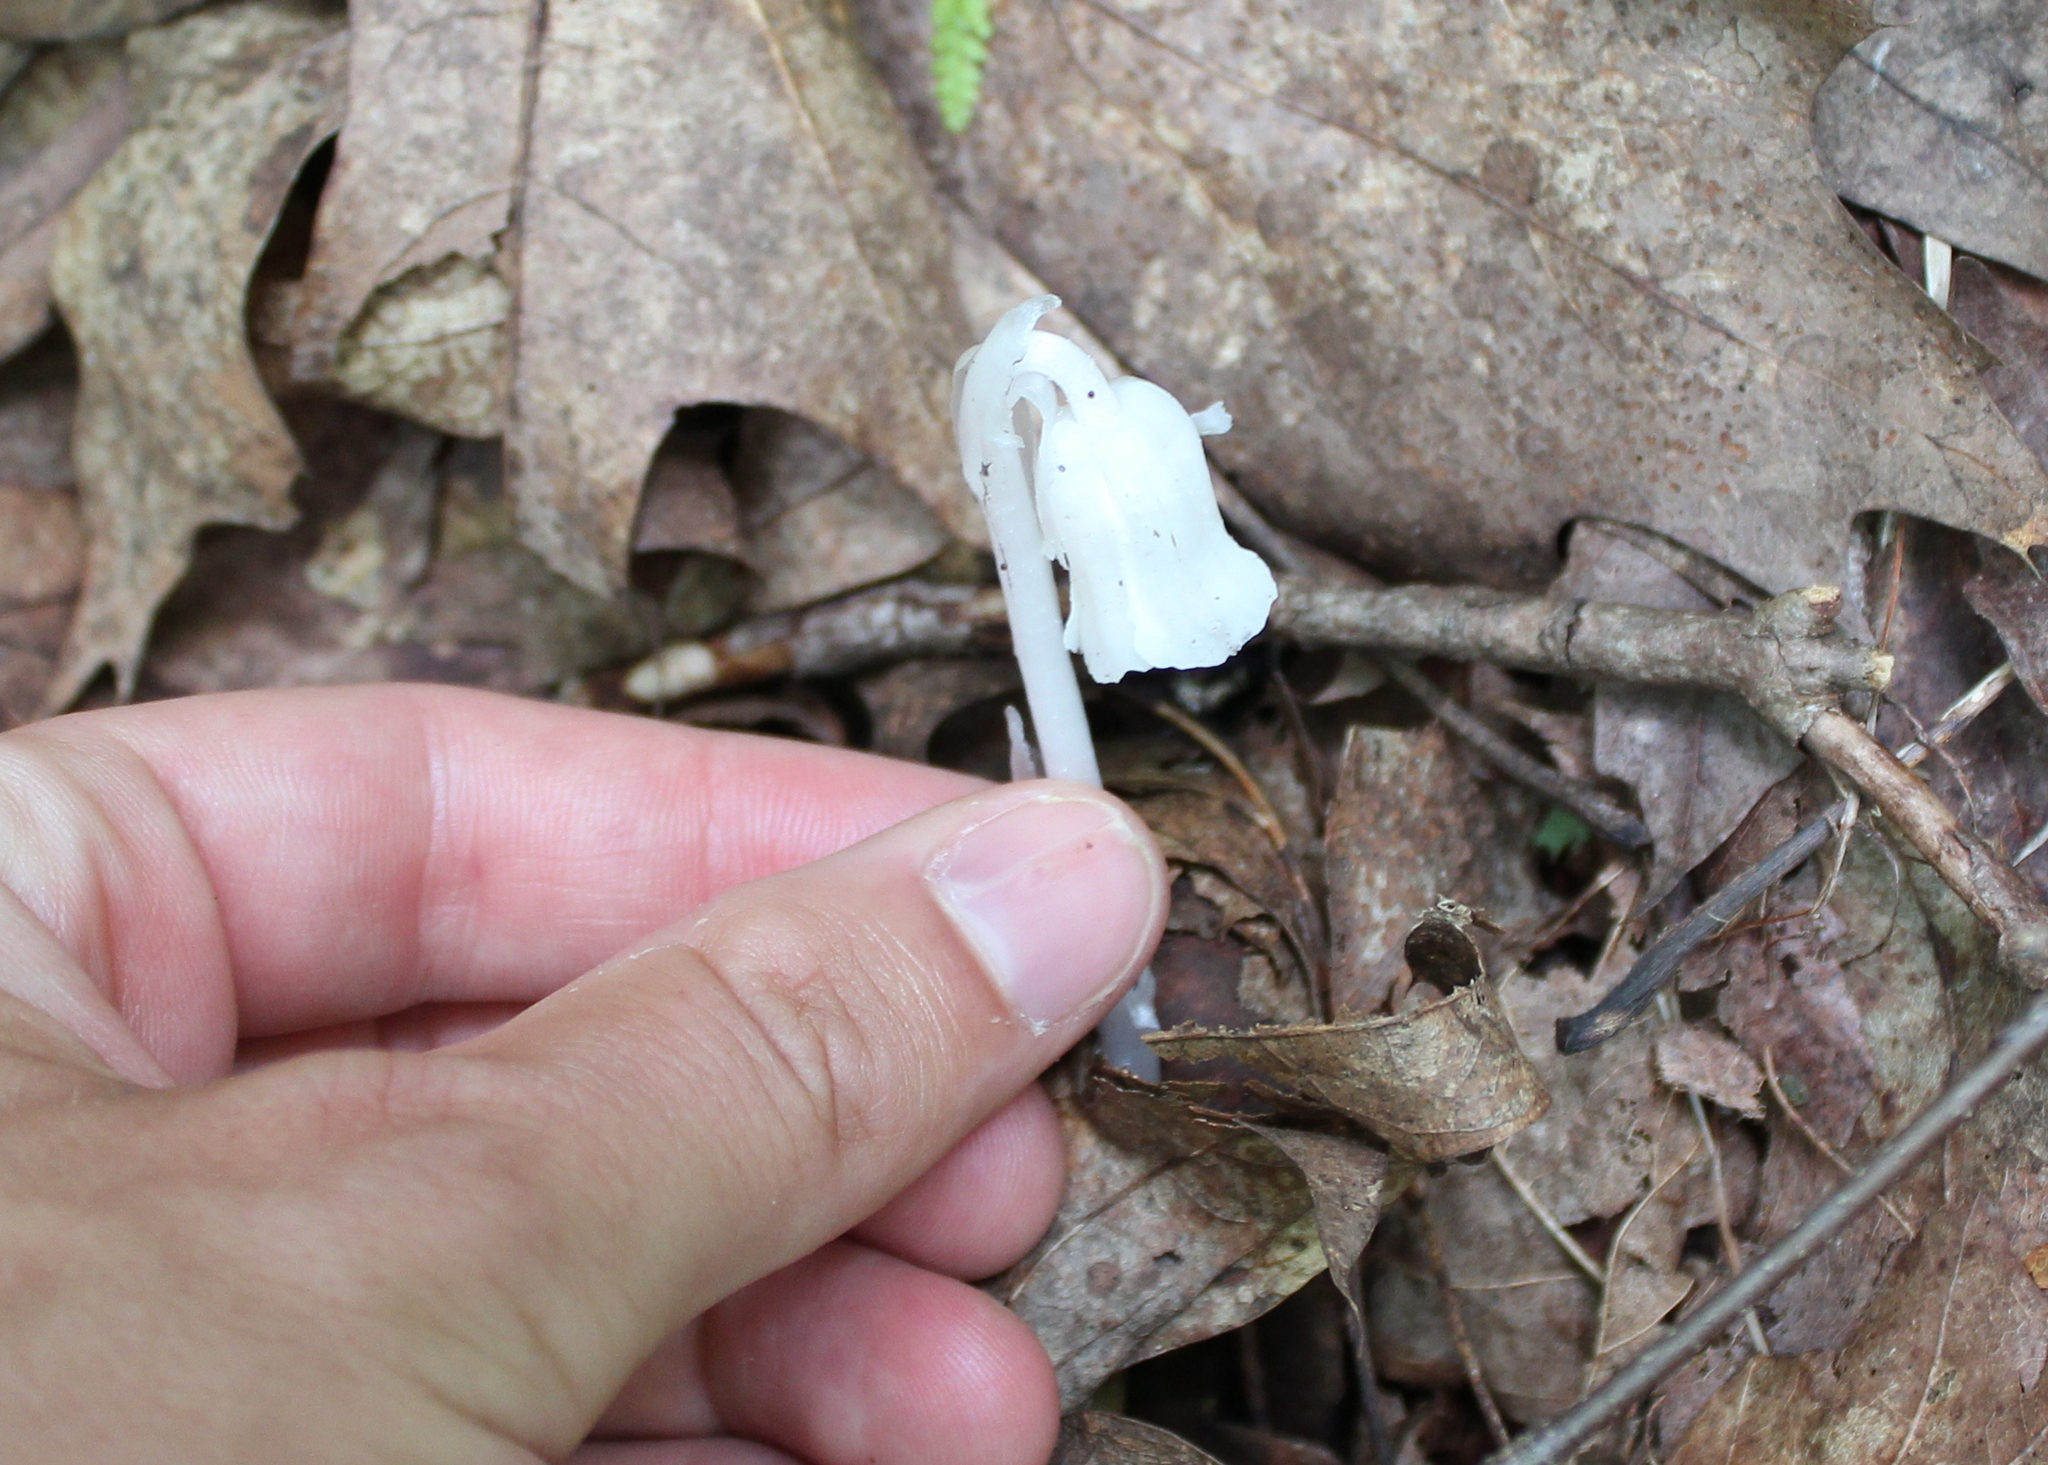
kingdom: Plantae
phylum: Tracheophyta
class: Magnoliopsida
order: Ericales
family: Ericaceae
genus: Monotropa
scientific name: Monotropa uniflora
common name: Convulsion root
